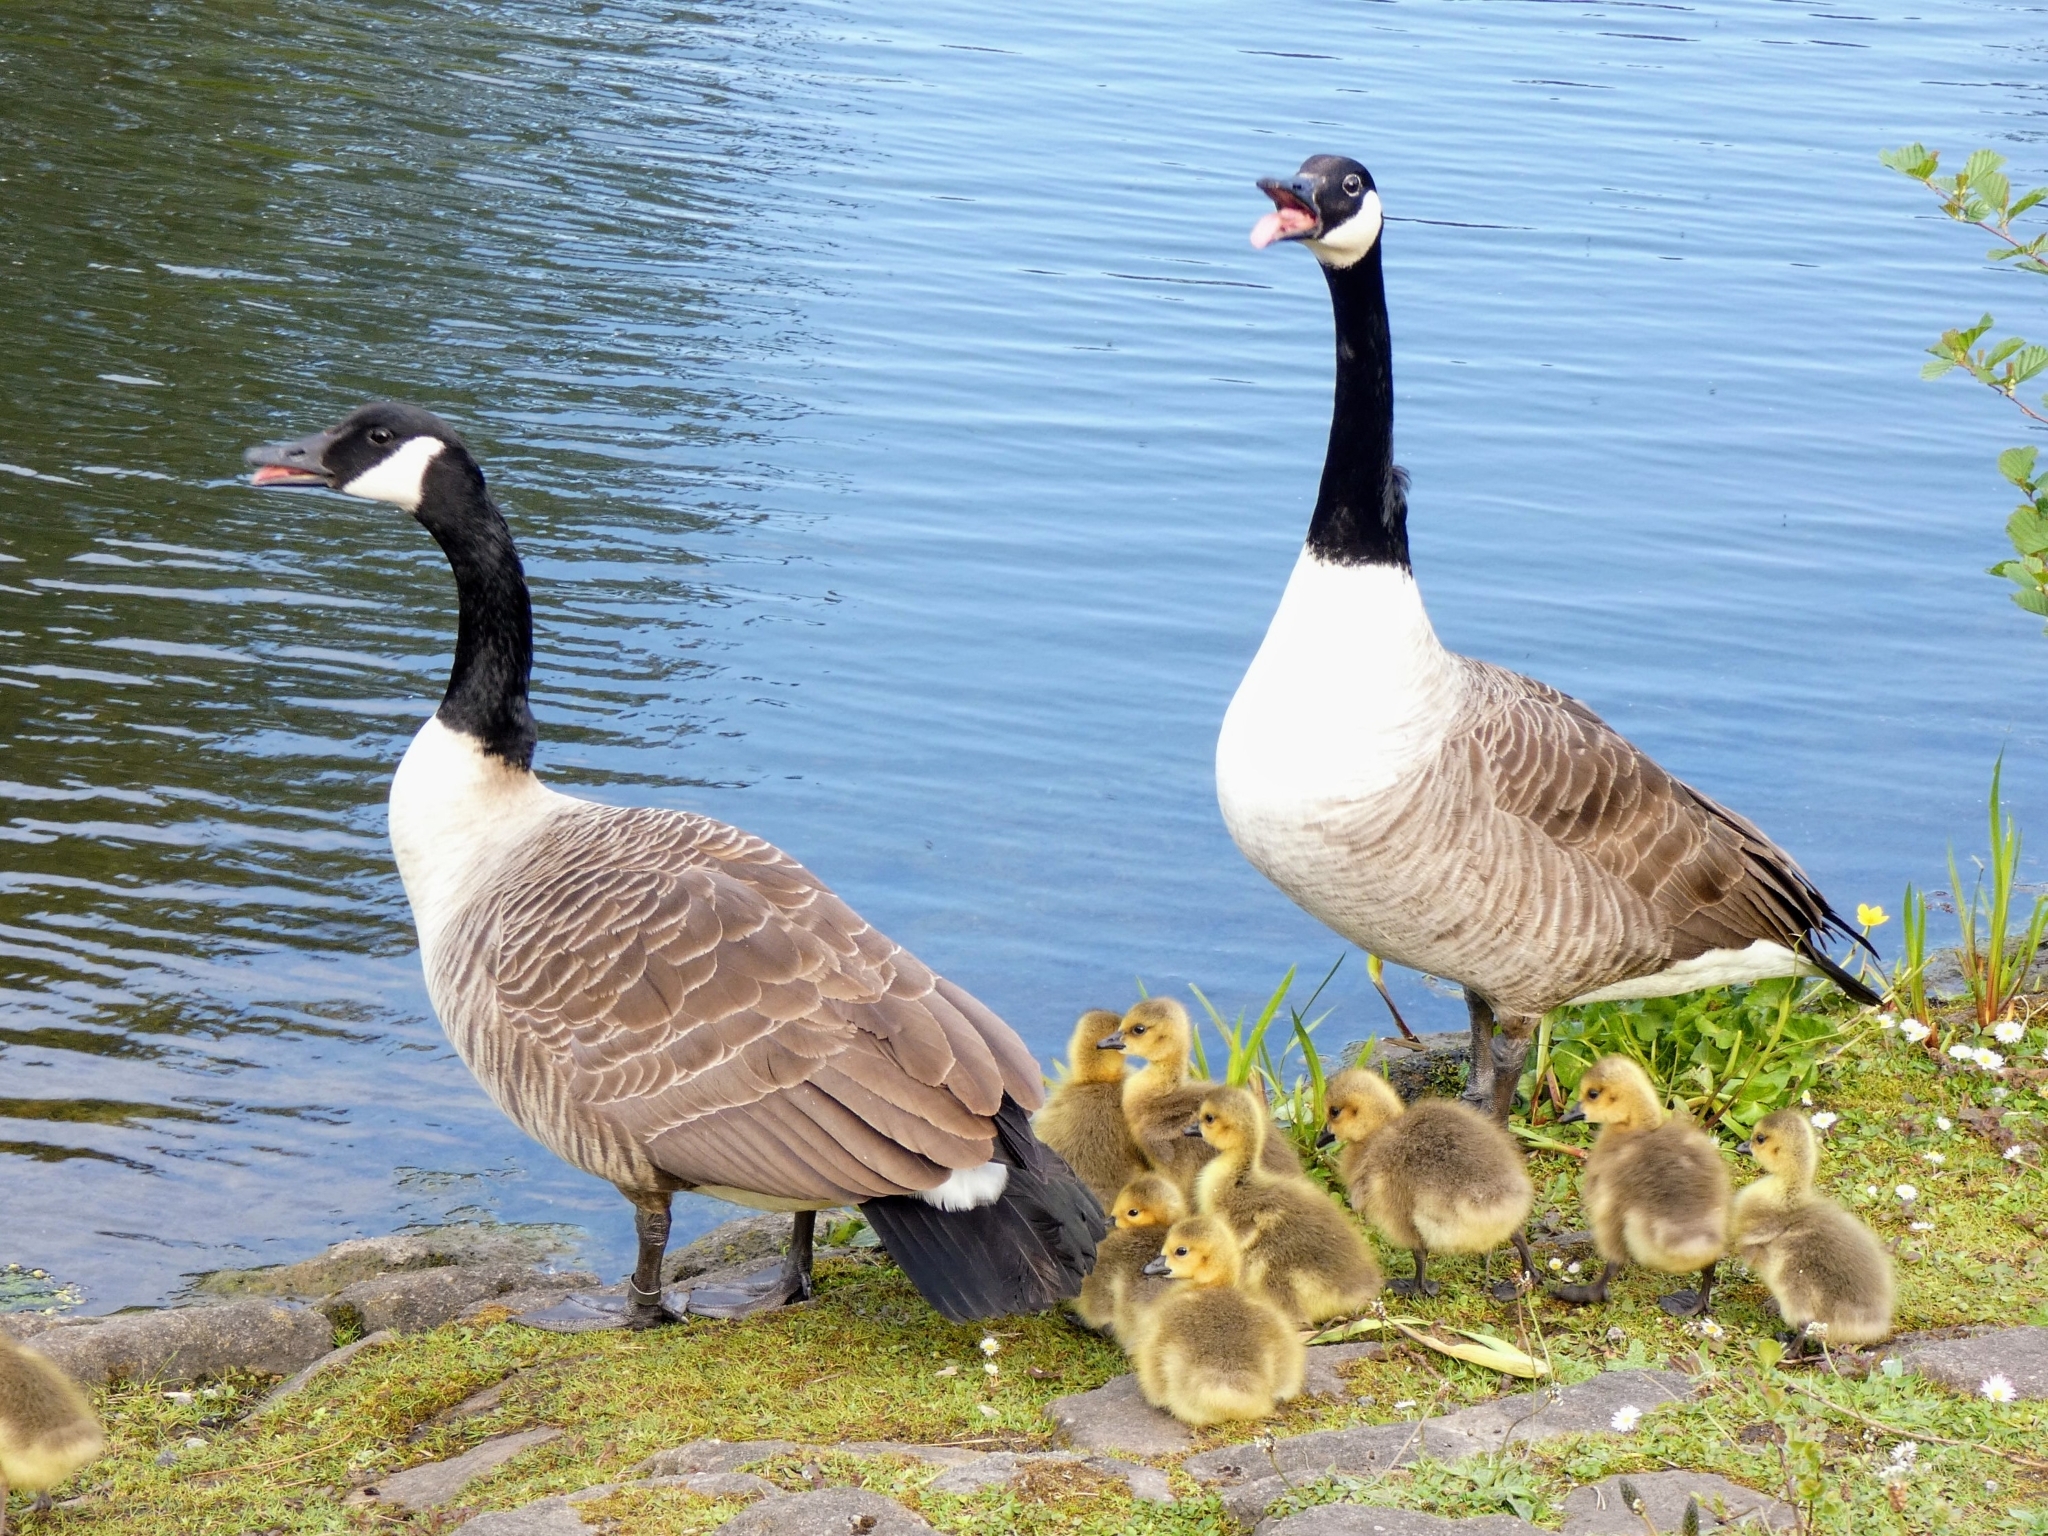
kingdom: Animalia
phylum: Chordata
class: Aves
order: Anseriformes
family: Anatidae
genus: Branta
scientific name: Branta canadensis
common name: Canada goose
